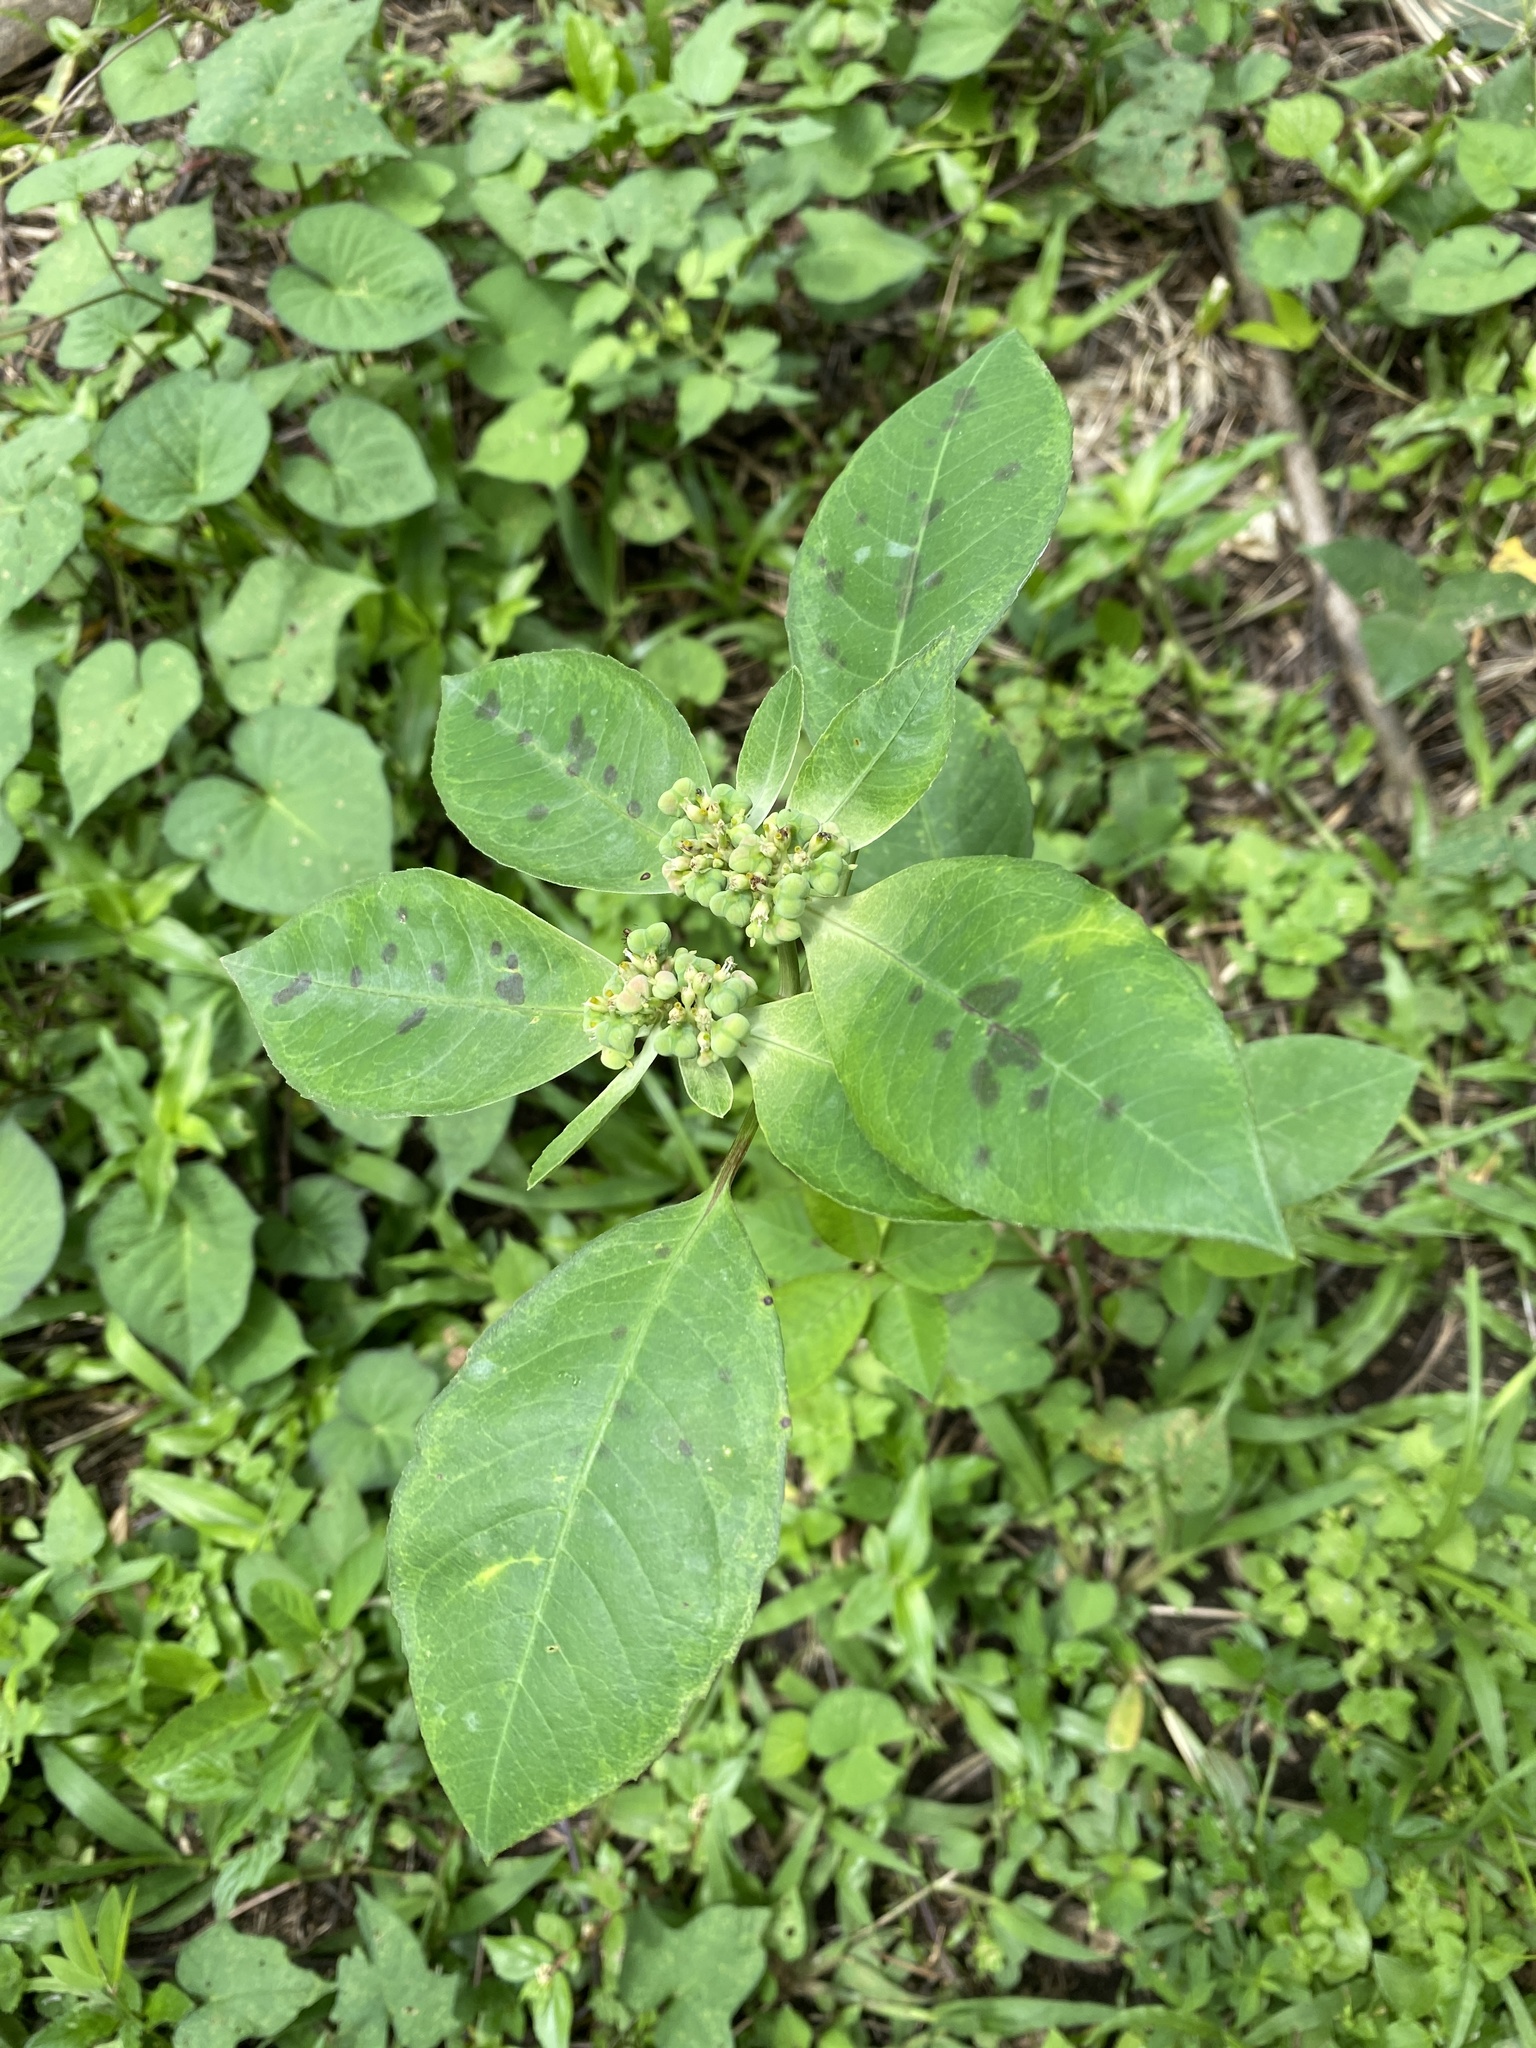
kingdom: Plantae
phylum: Tracheophyta
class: Magnoliopsida
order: Malpighiales
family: Euphorbiaceae
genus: Euphorbia
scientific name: Euphorbia heterophylla
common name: Mexican fireplant
